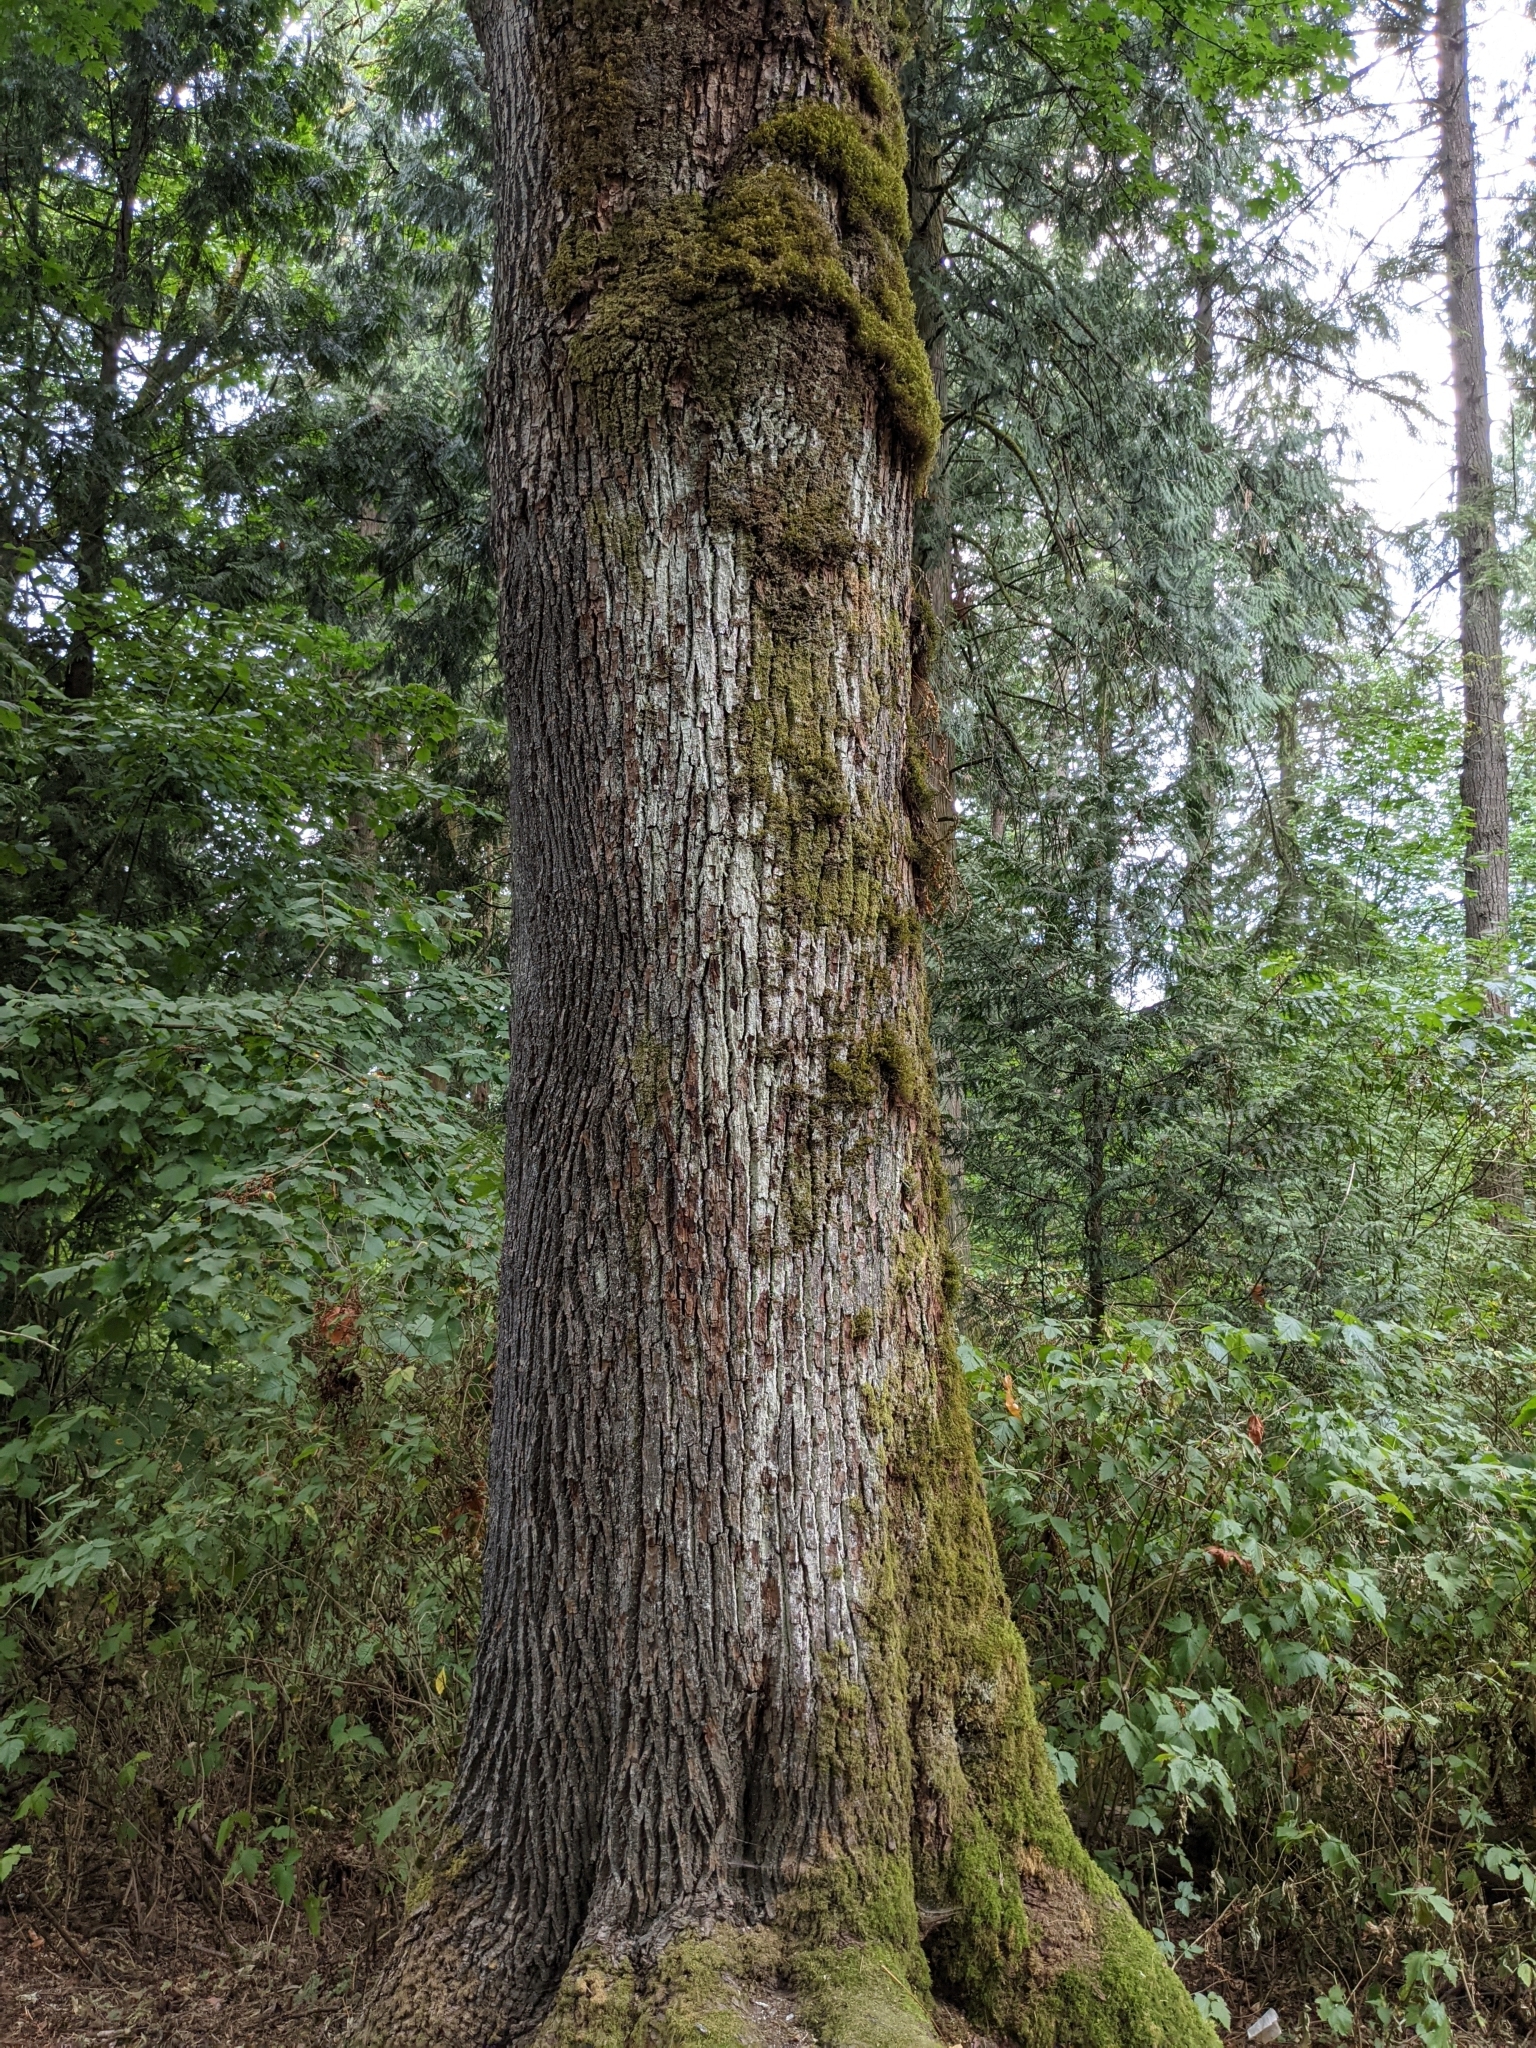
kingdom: Plantae
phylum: Tracheophyta
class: Magnoliopsida
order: Sapindales
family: Sapindaceae
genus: Acer
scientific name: Acer macrophyllum
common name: Oregon maple
